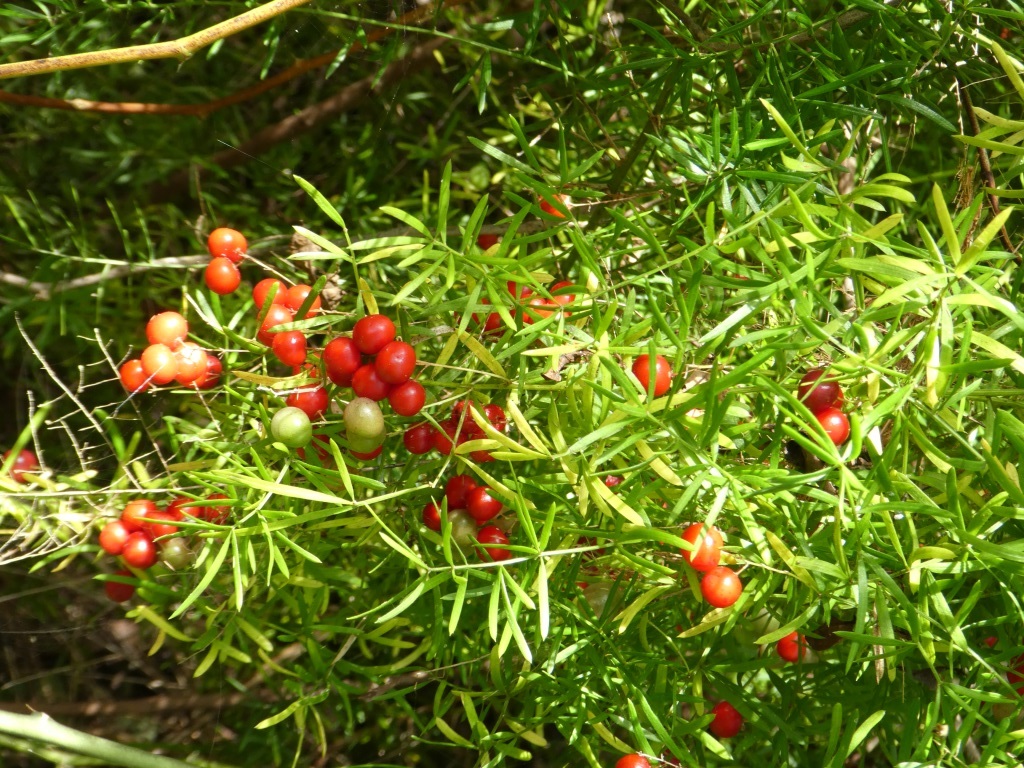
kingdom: Plantae
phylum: Tracheophyta
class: Liliopsida
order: Asparagales
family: Asparagaceae
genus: Asparagus
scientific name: Asparagus aethiopicus
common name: Sprenger's asparagus fern
